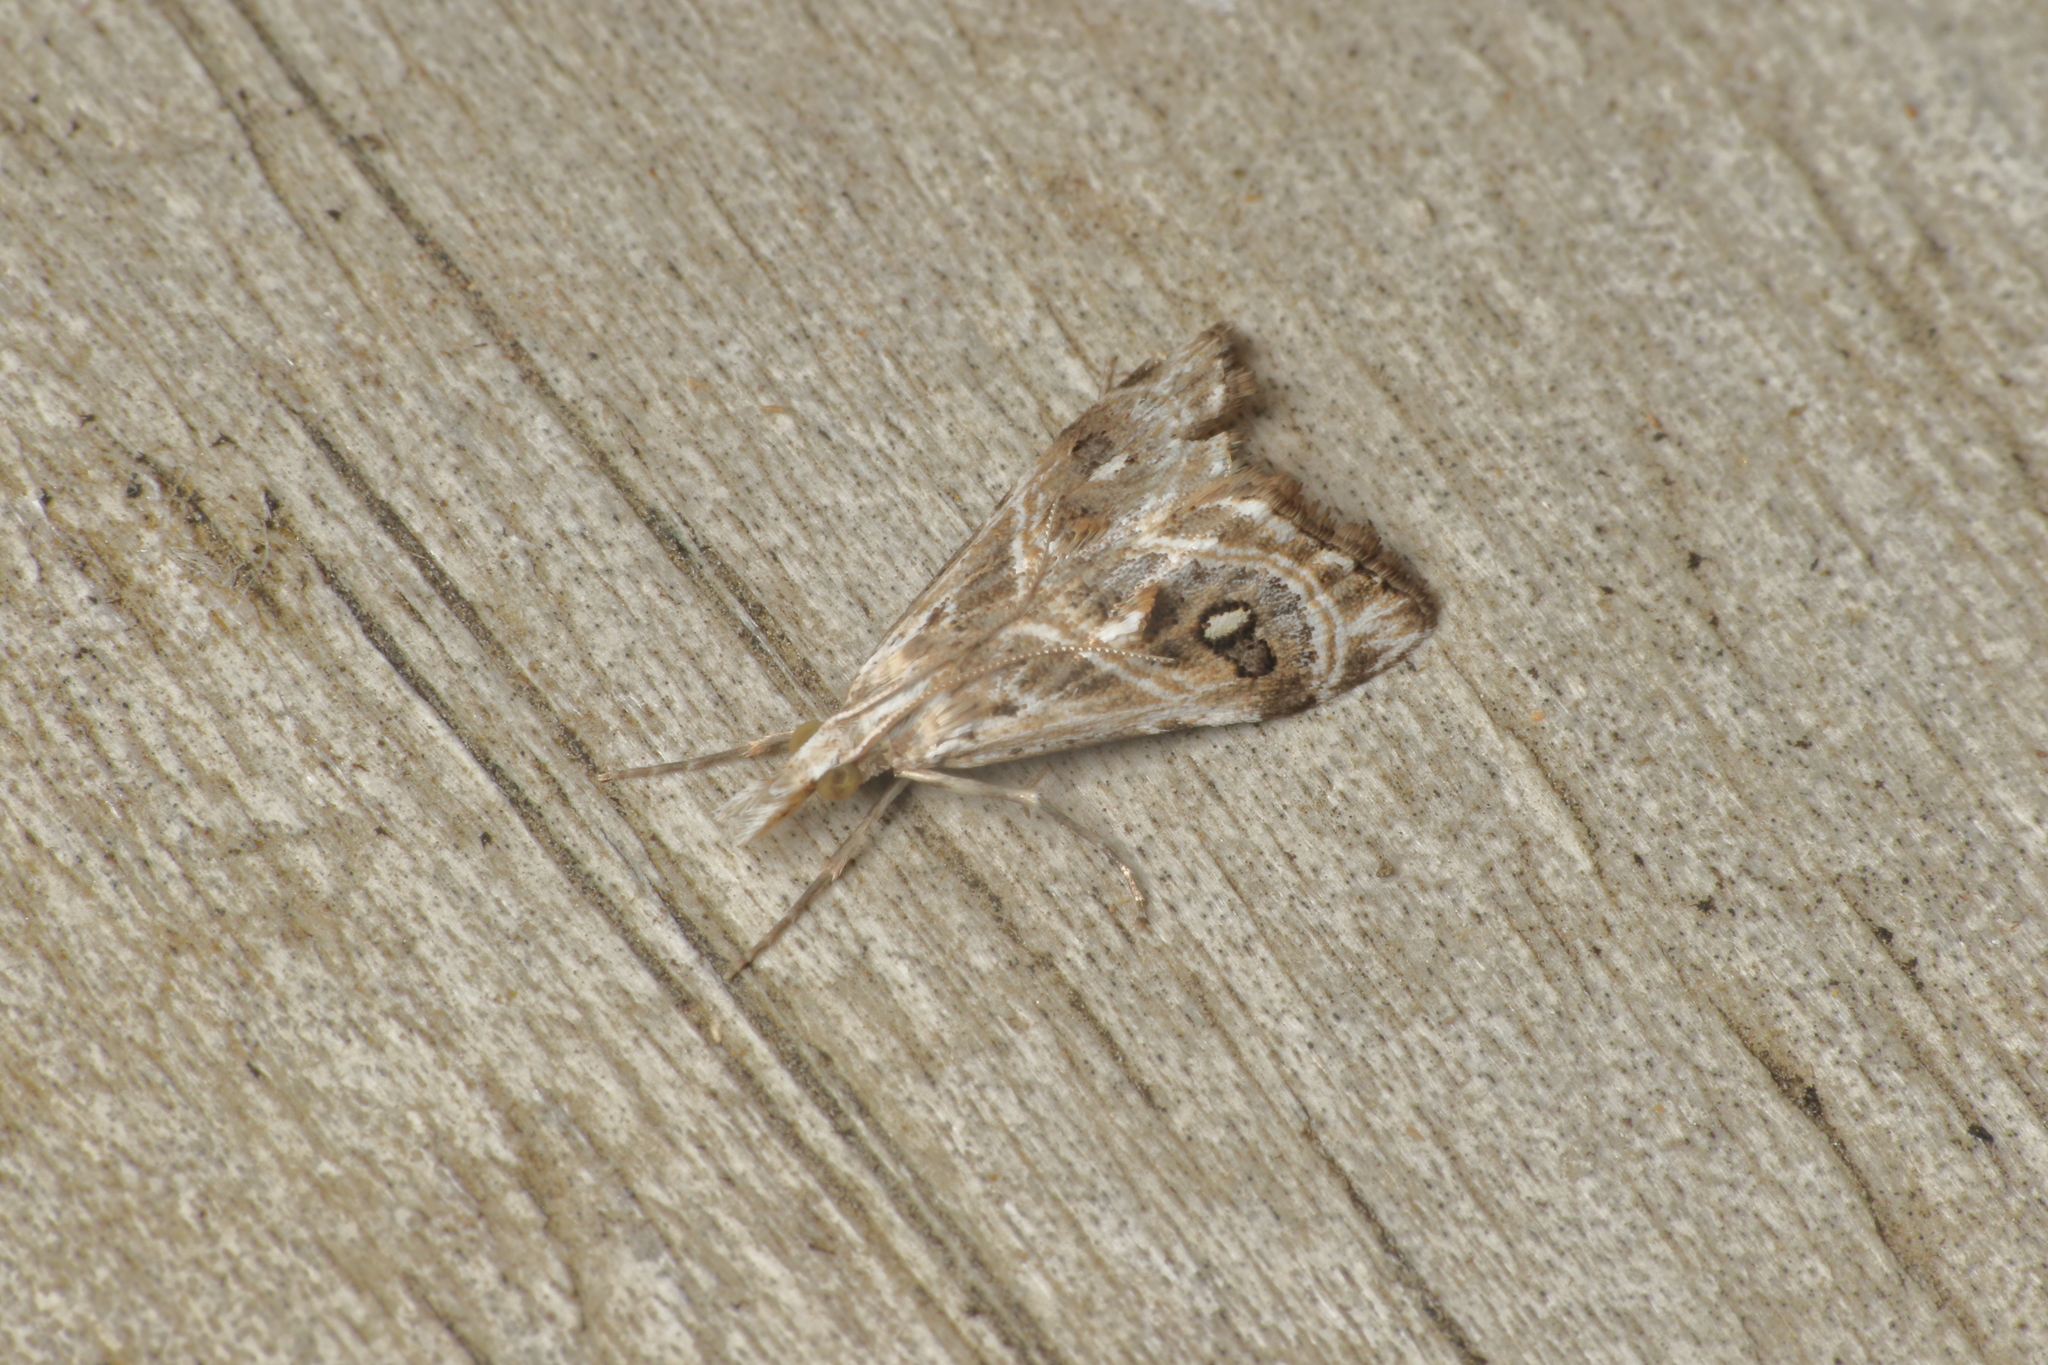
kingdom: Animalia
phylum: Arthropoda
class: Insecta
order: Lepidoptera
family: Crambidae
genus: Gadira
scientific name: Gadira acerella
